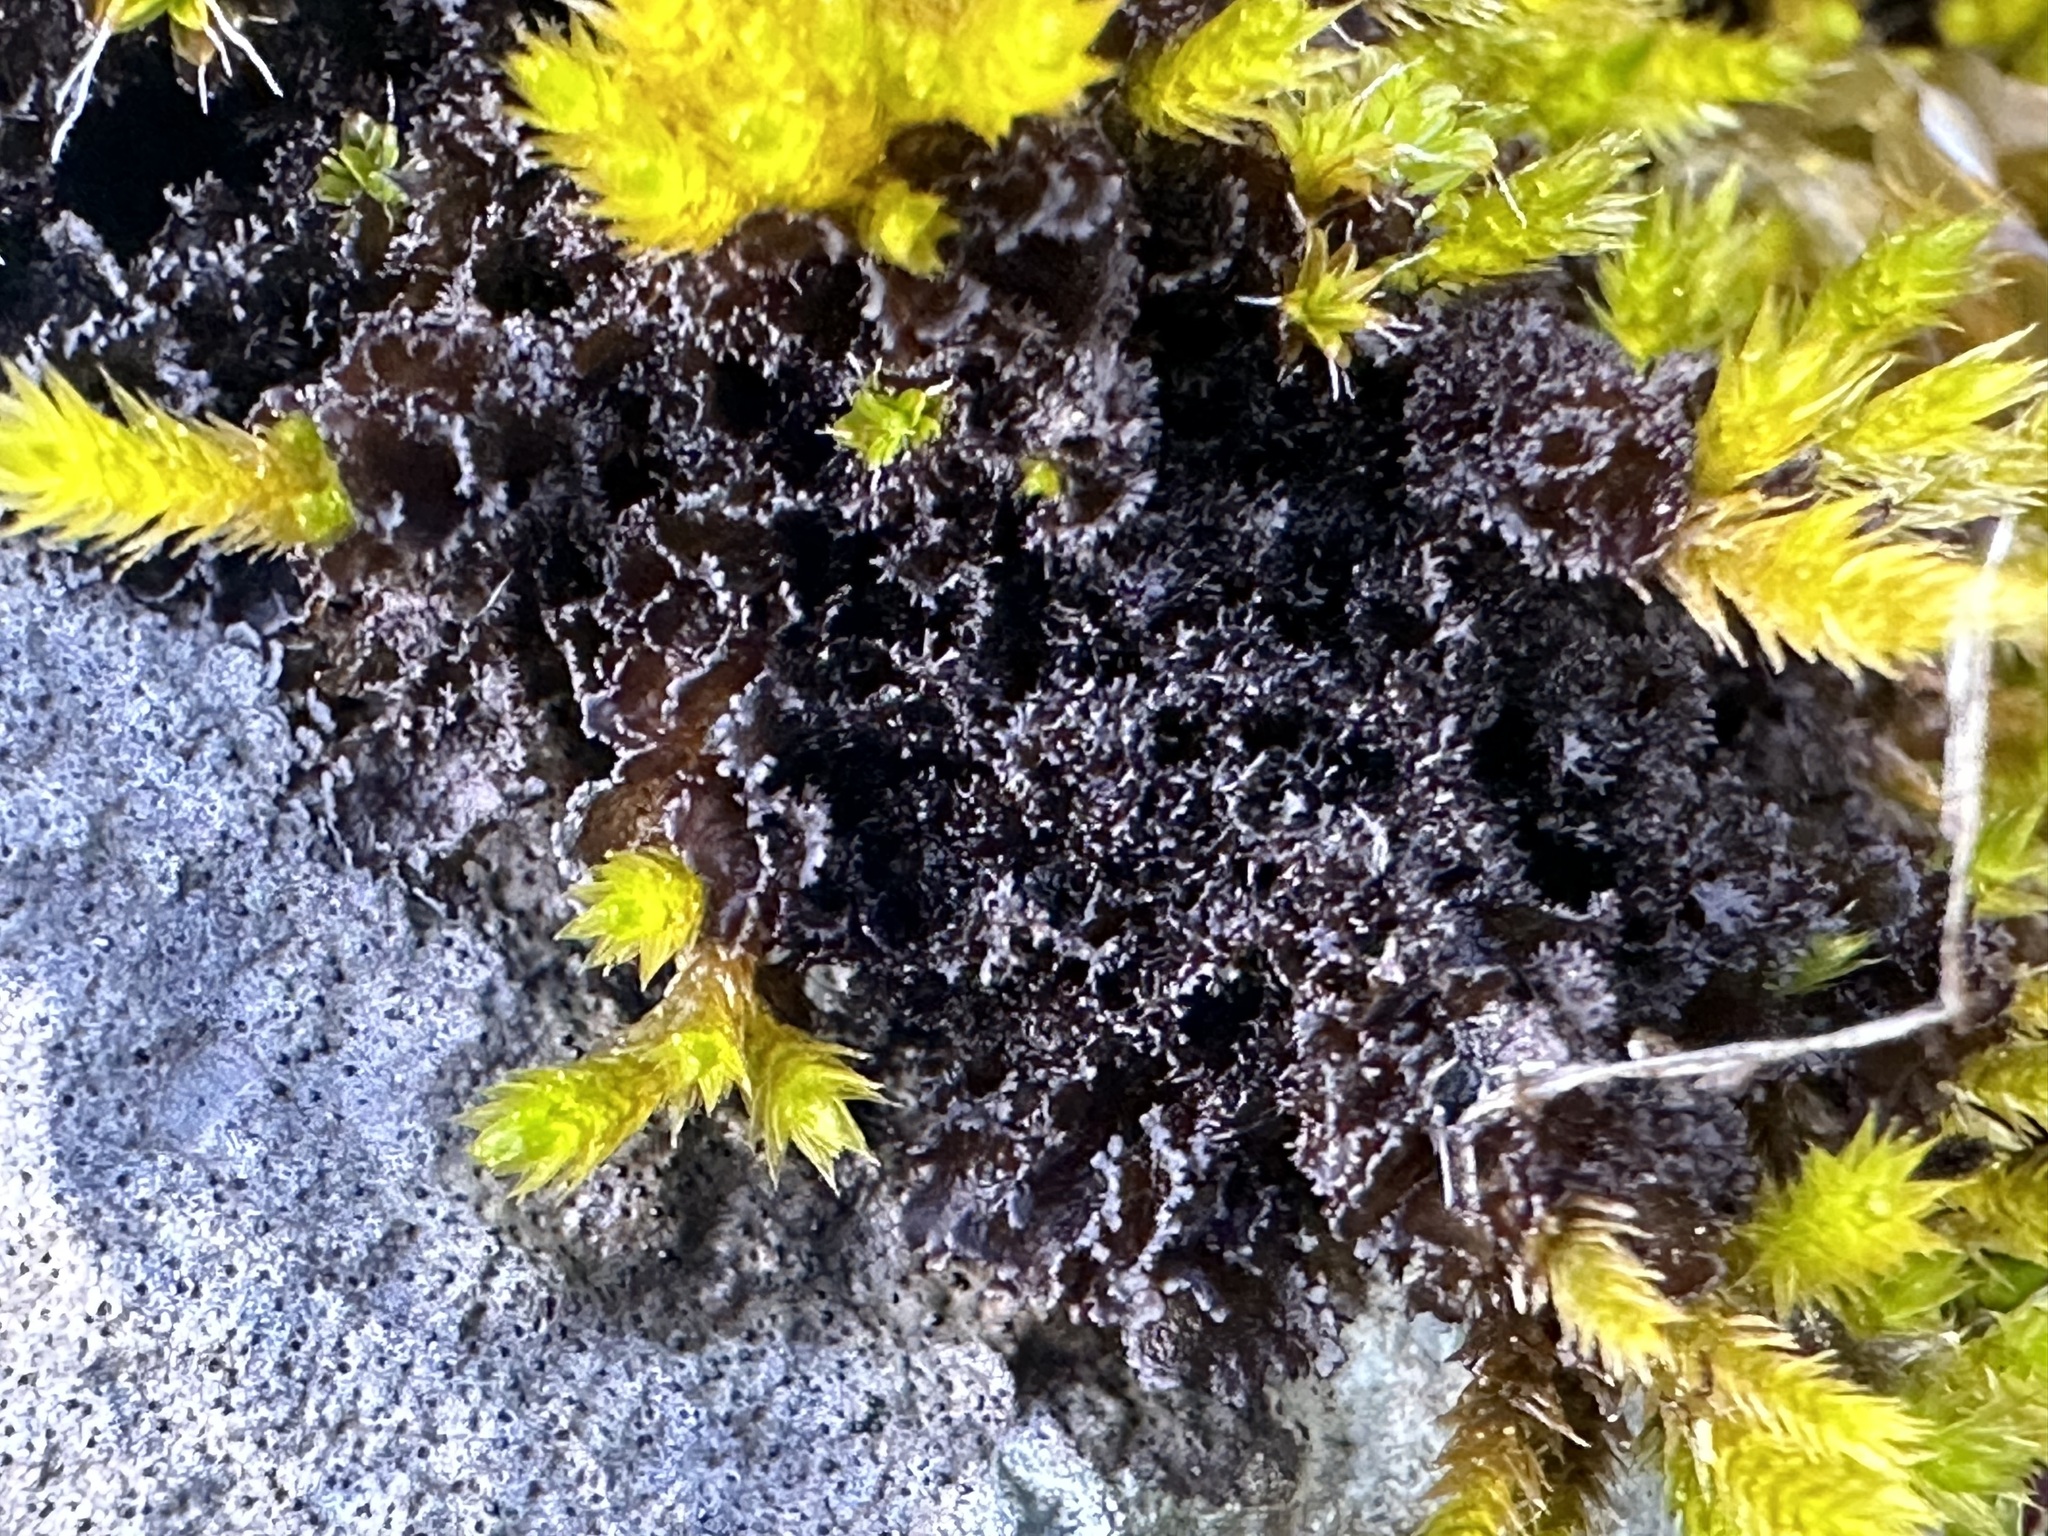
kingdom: Fungi
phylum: Ascomycota
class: Lecanoromycetes
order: Peltigerales
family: Collemataceae
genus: Scytinium
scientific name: Scytinium lichenoides
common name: Tattered jellyskin lichen
